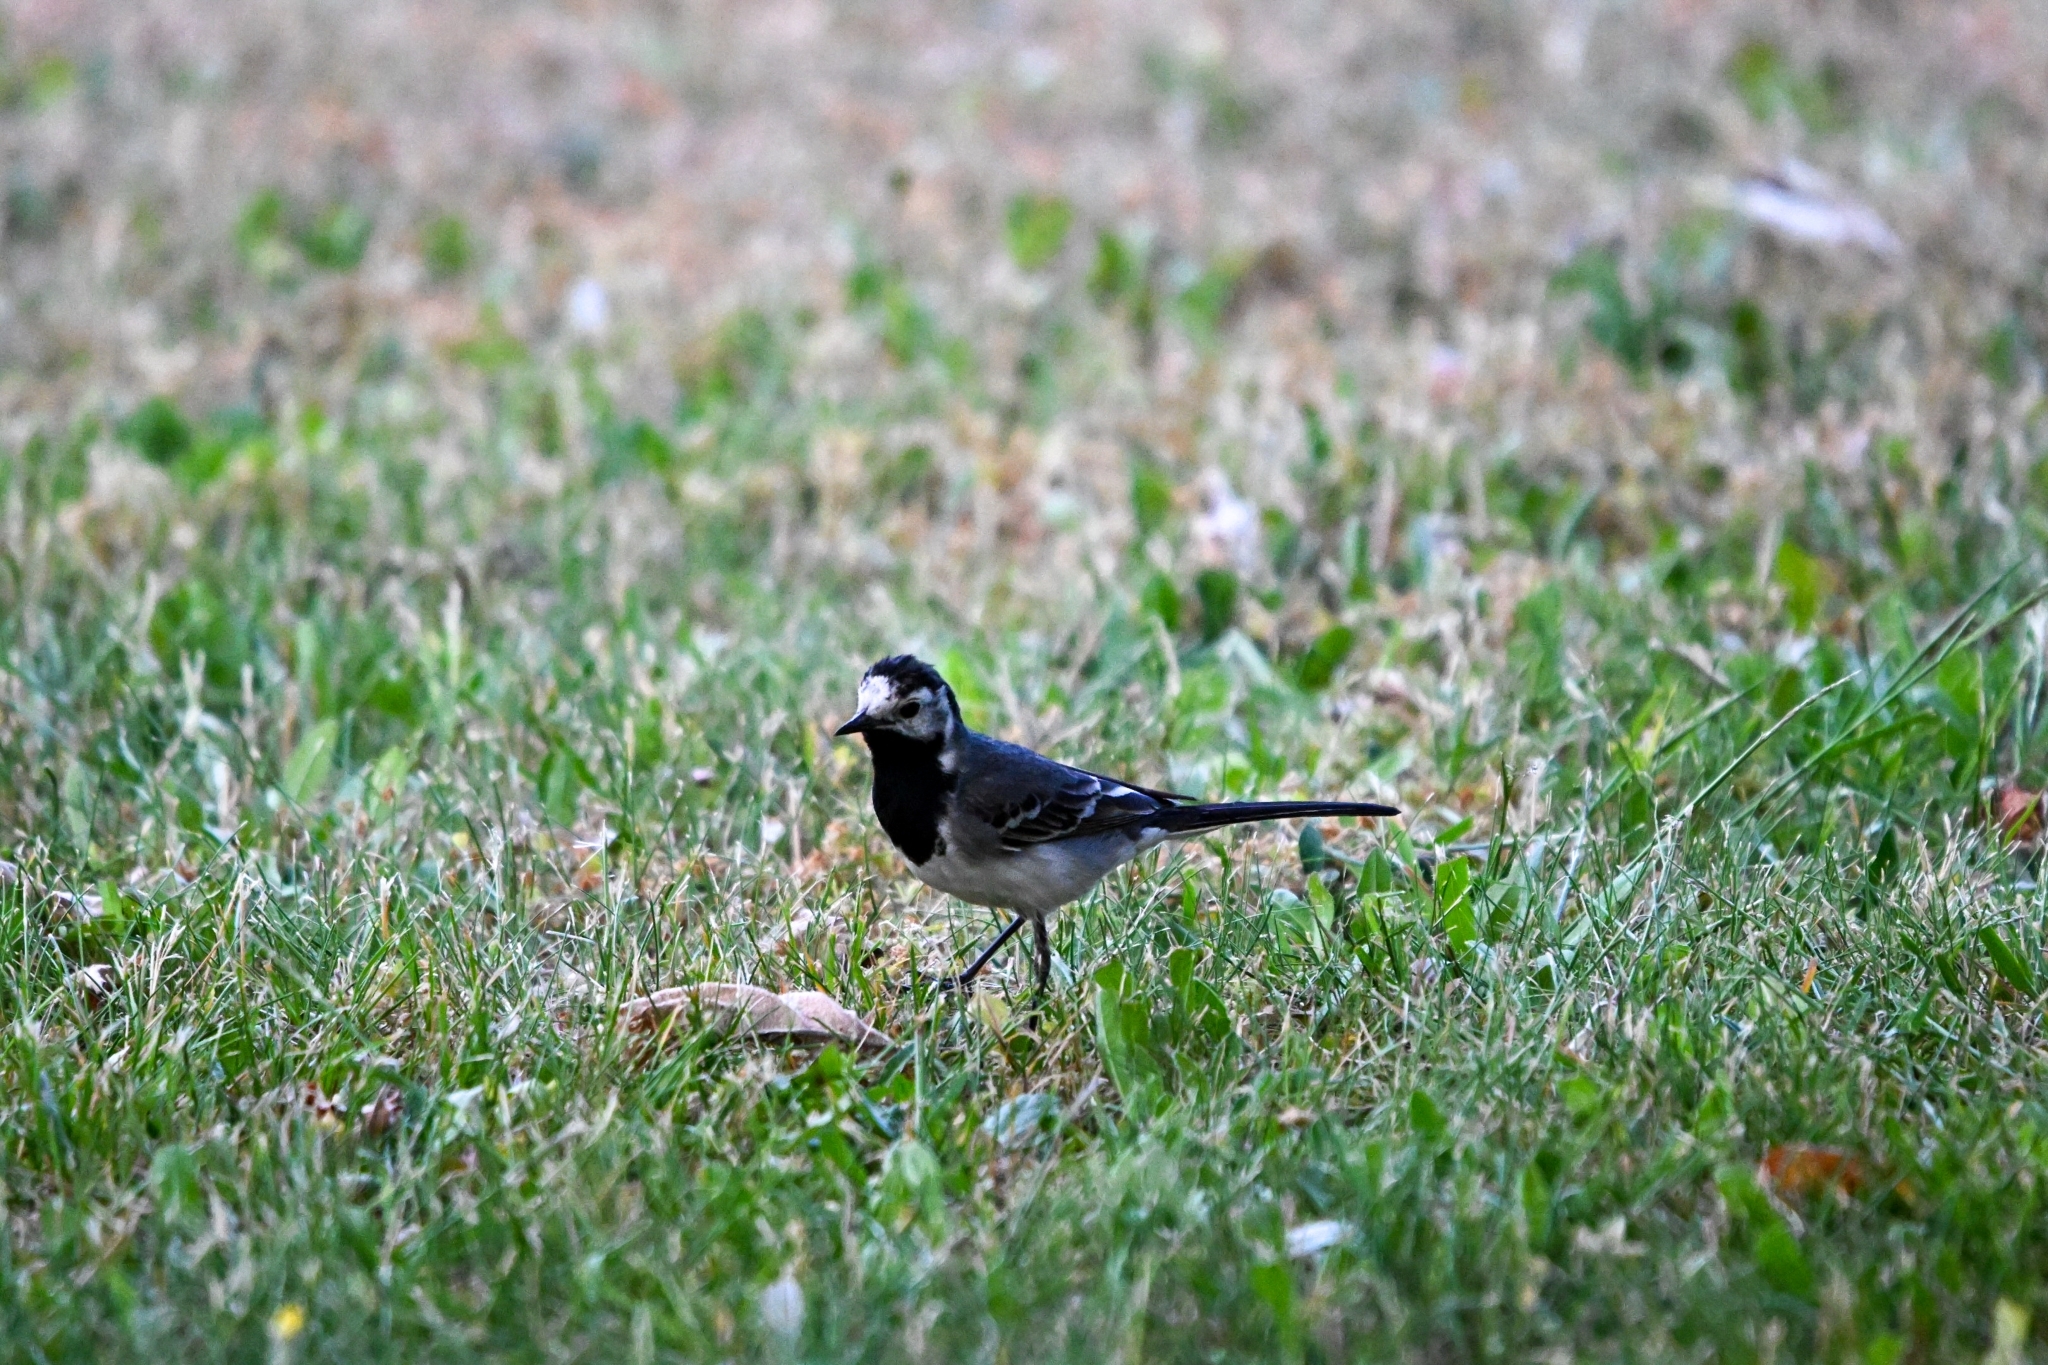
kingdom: Animalia
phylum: Chordata
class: Aves
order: Passeriformes
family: Motacillidae
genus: Motacilla
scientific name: Motacilla alba
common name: White wagtail
